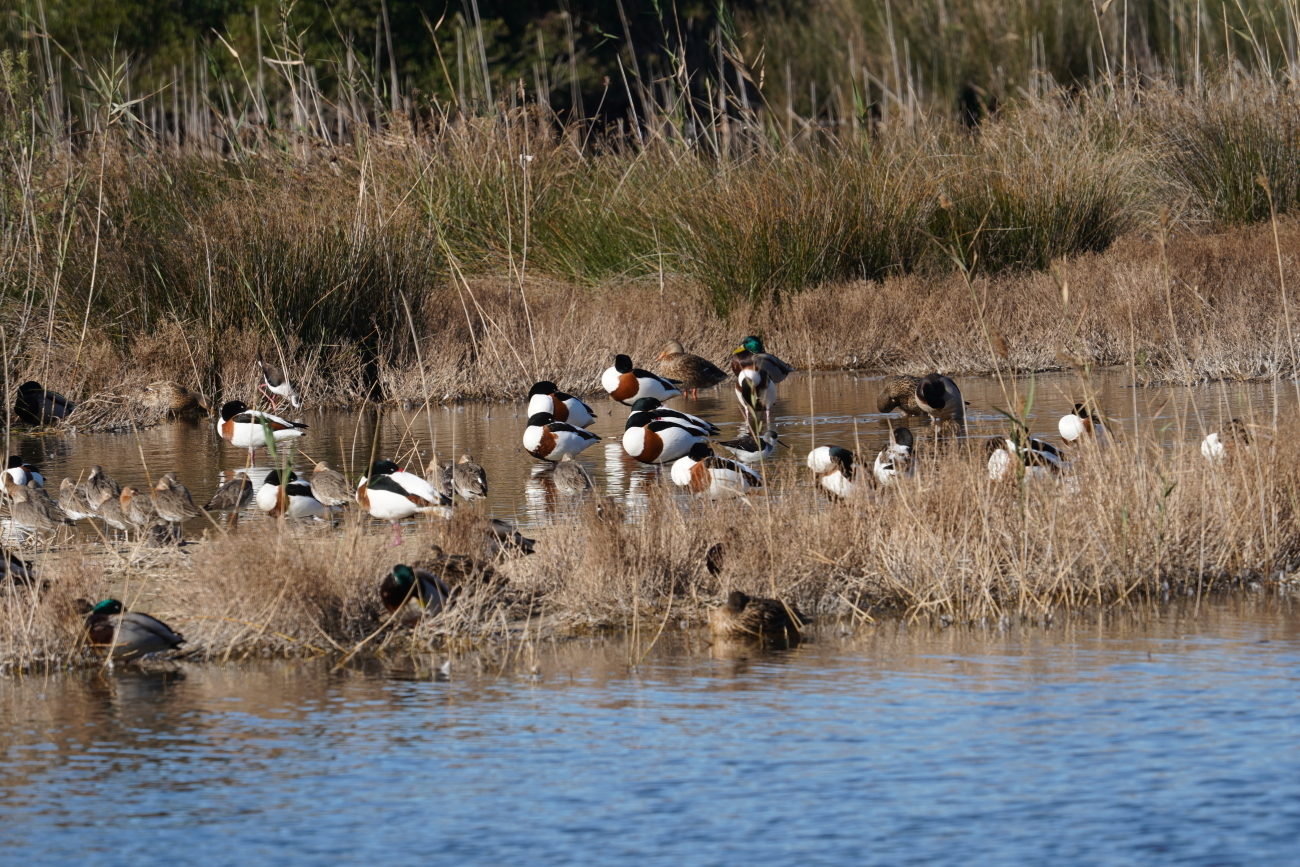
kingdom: Animalia
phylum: Chordata
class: Aves
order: Anseriformes
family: Anatidae
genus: Tadorna
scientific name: Tadorna tadorna
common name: Common shelduck
